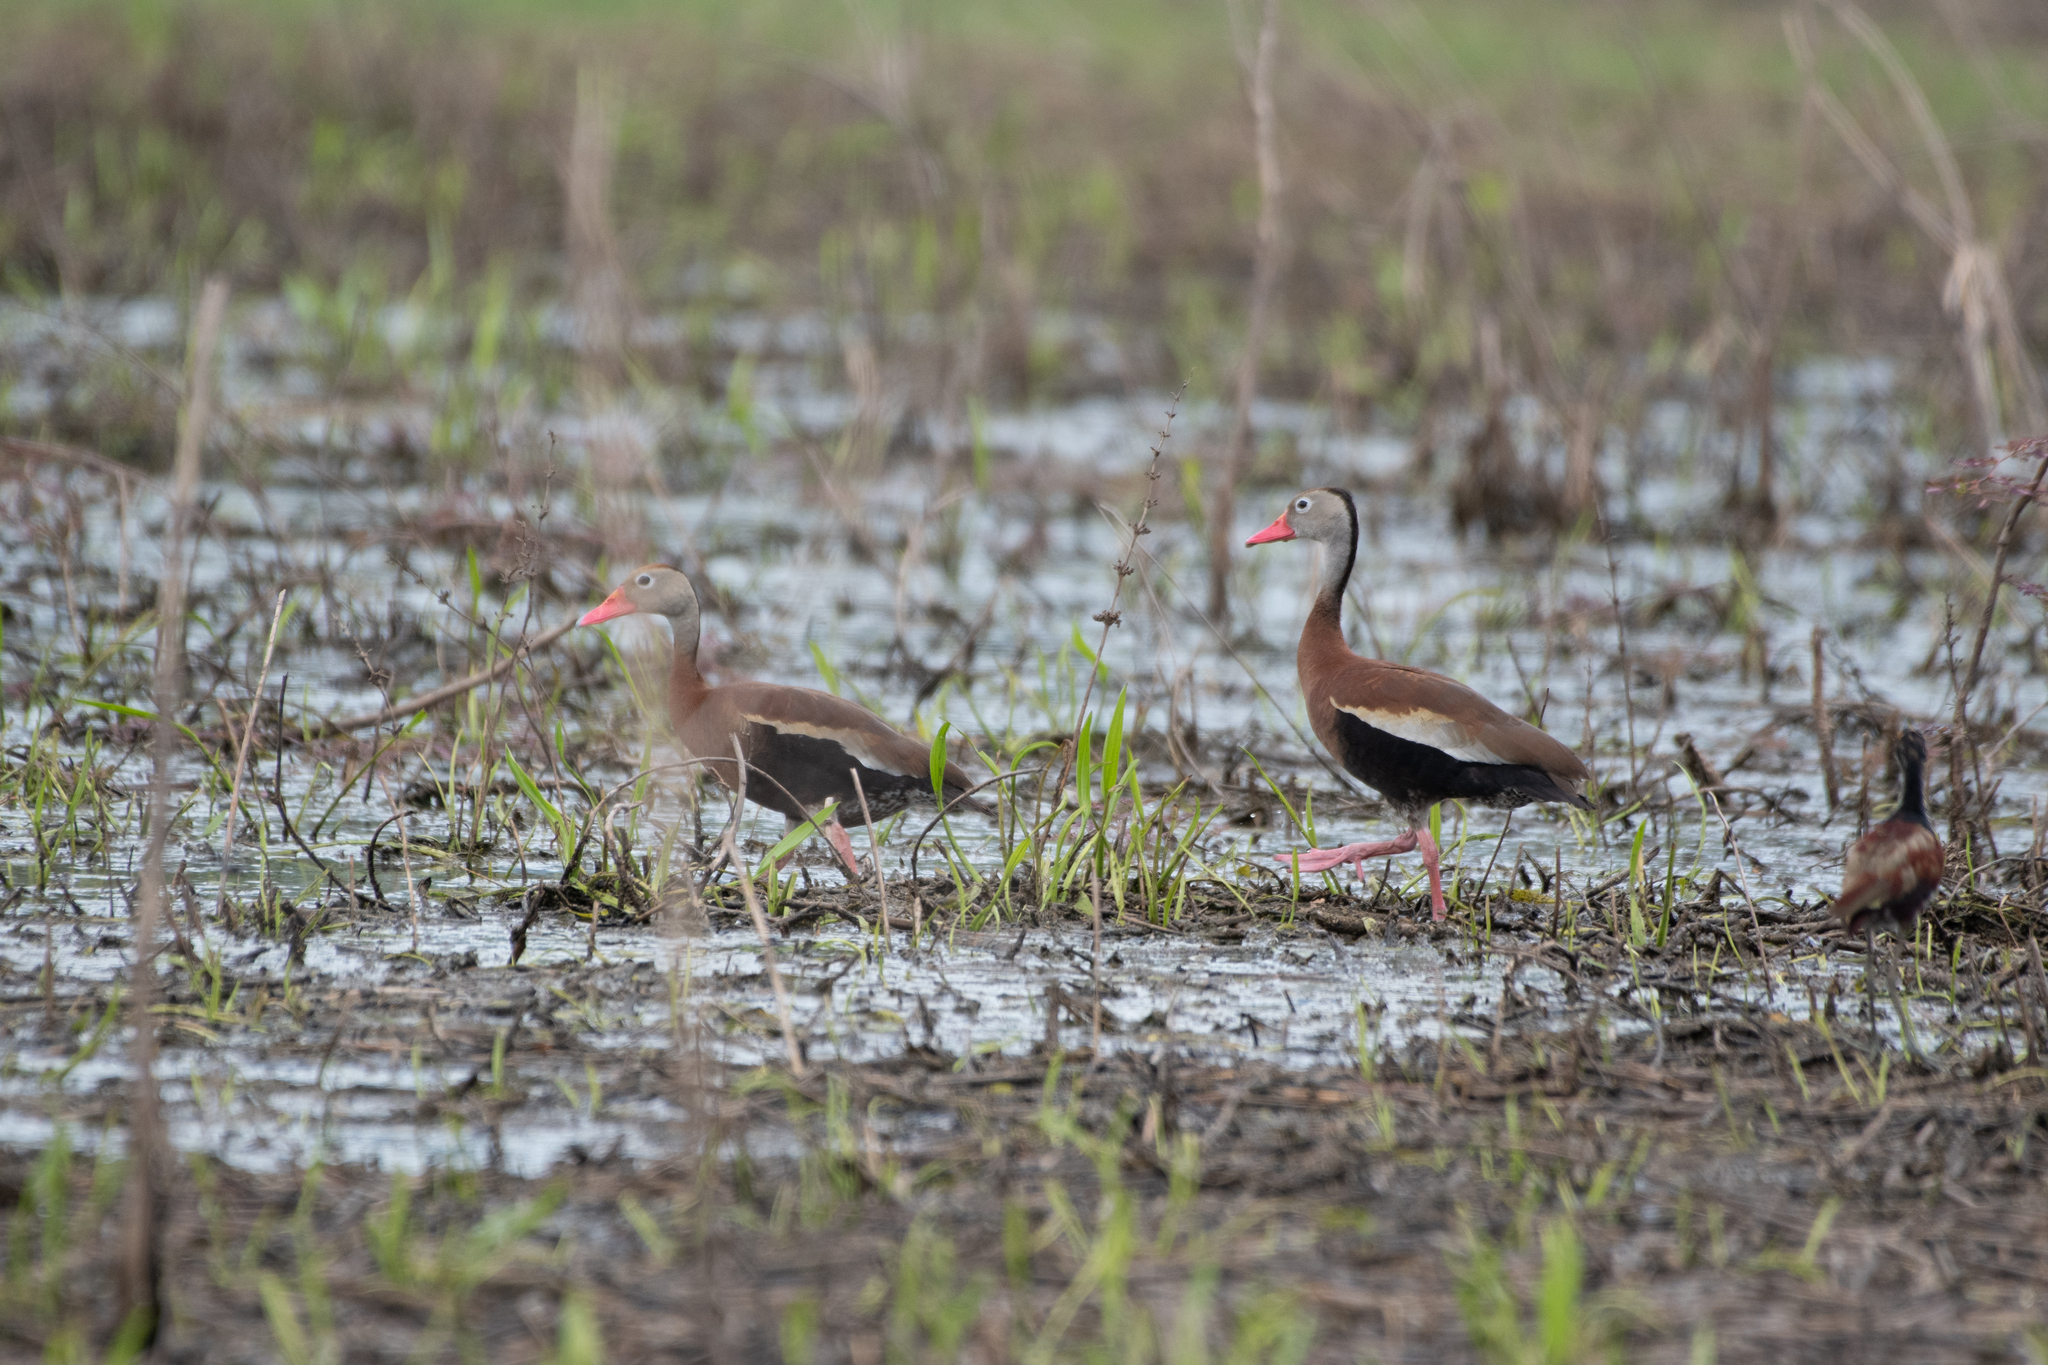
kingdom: Animalia
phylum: Chordata
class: Aves
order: Anseriformes
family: Anatidae
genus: Dendrocygna
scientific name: Dendrocygna autumnalis
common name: Black-bellied whistling duck
